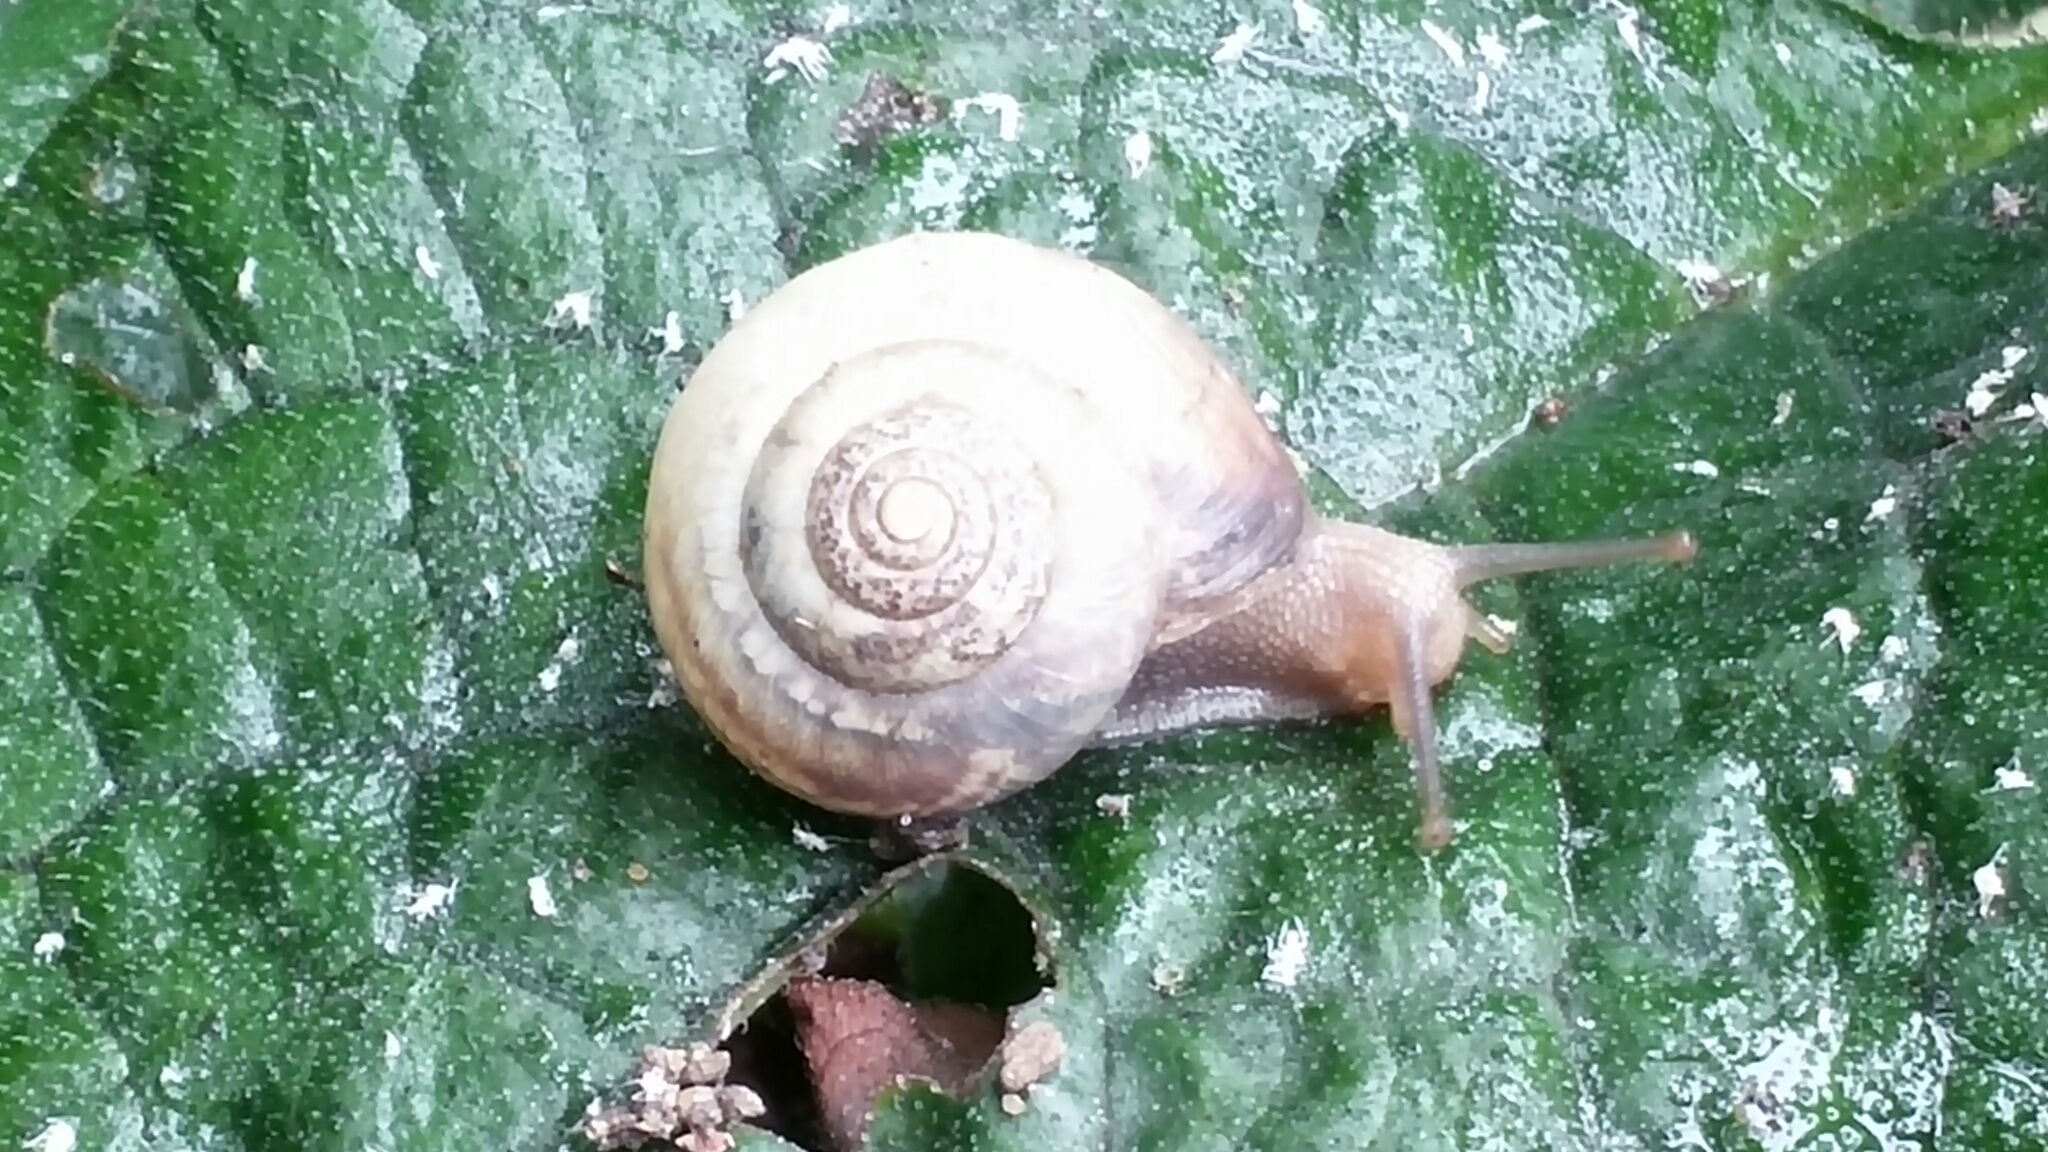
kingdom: Animalia
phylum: Mollusca
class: Gastropoda
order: Stylommatophora
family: Hygromiidae
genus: Monacha
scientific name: Monacha cantiana
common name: Kentish snail
